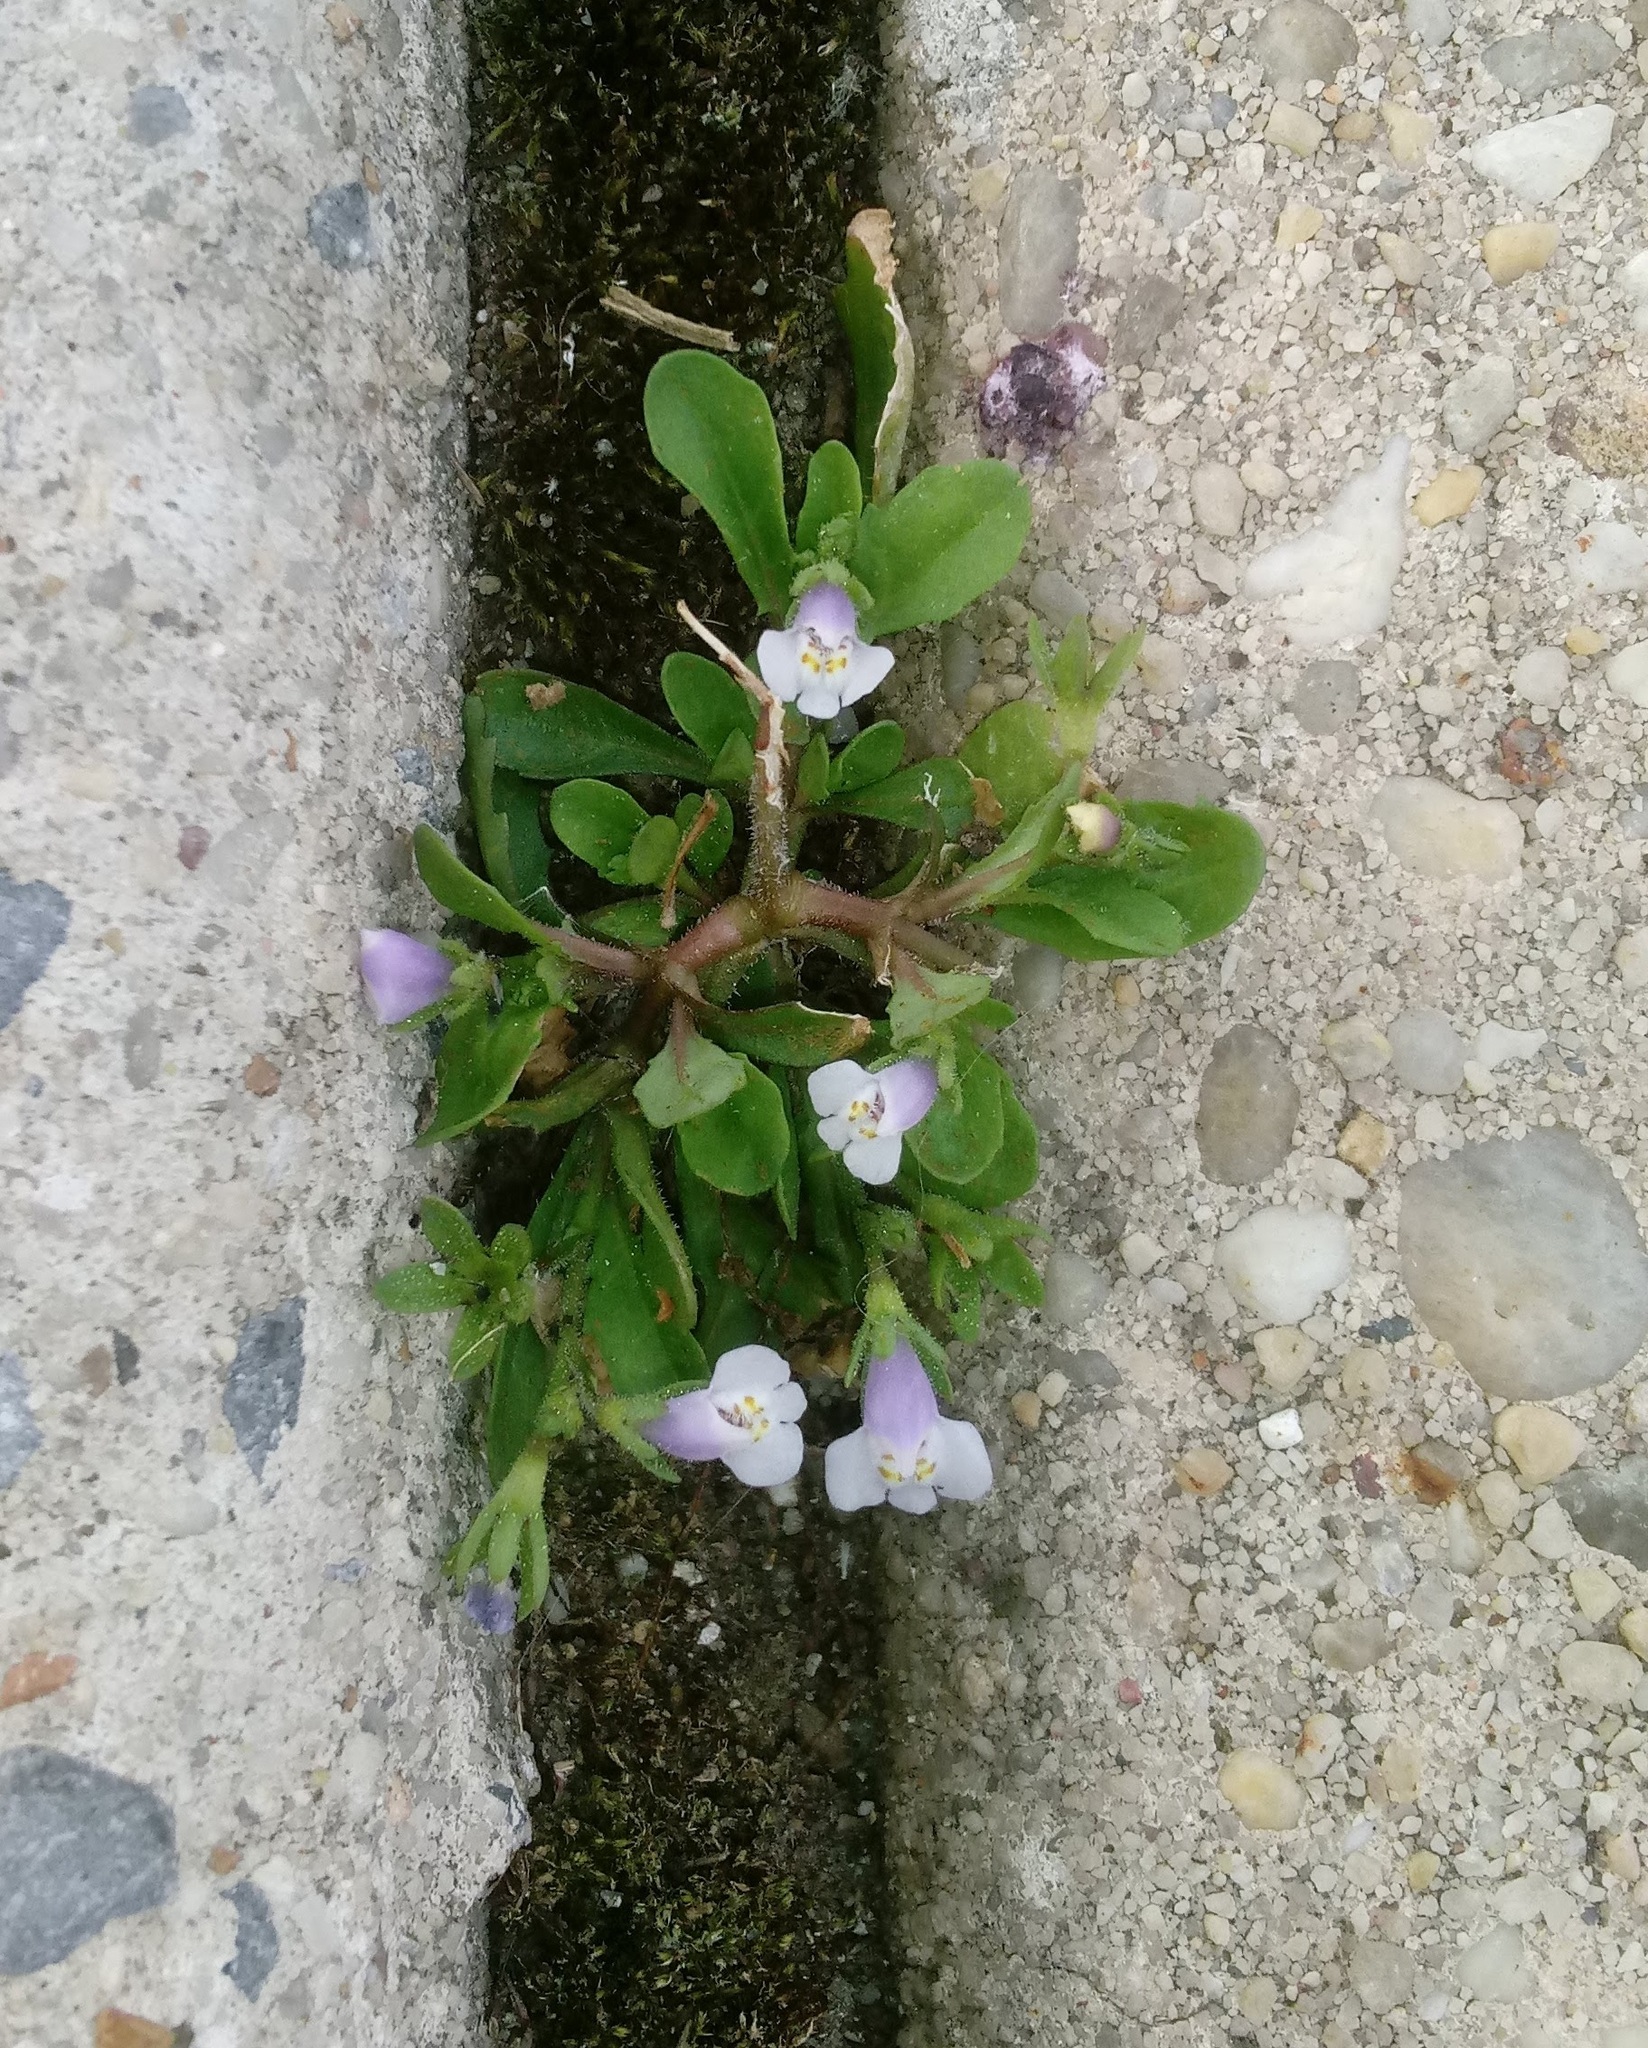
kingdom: Plantae
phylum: Tracheophyta
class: Magnoliopsida
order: Lamiales
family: Mazaceae
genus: Mazus
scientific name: Mazus pumilus
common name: Japanese mazus
